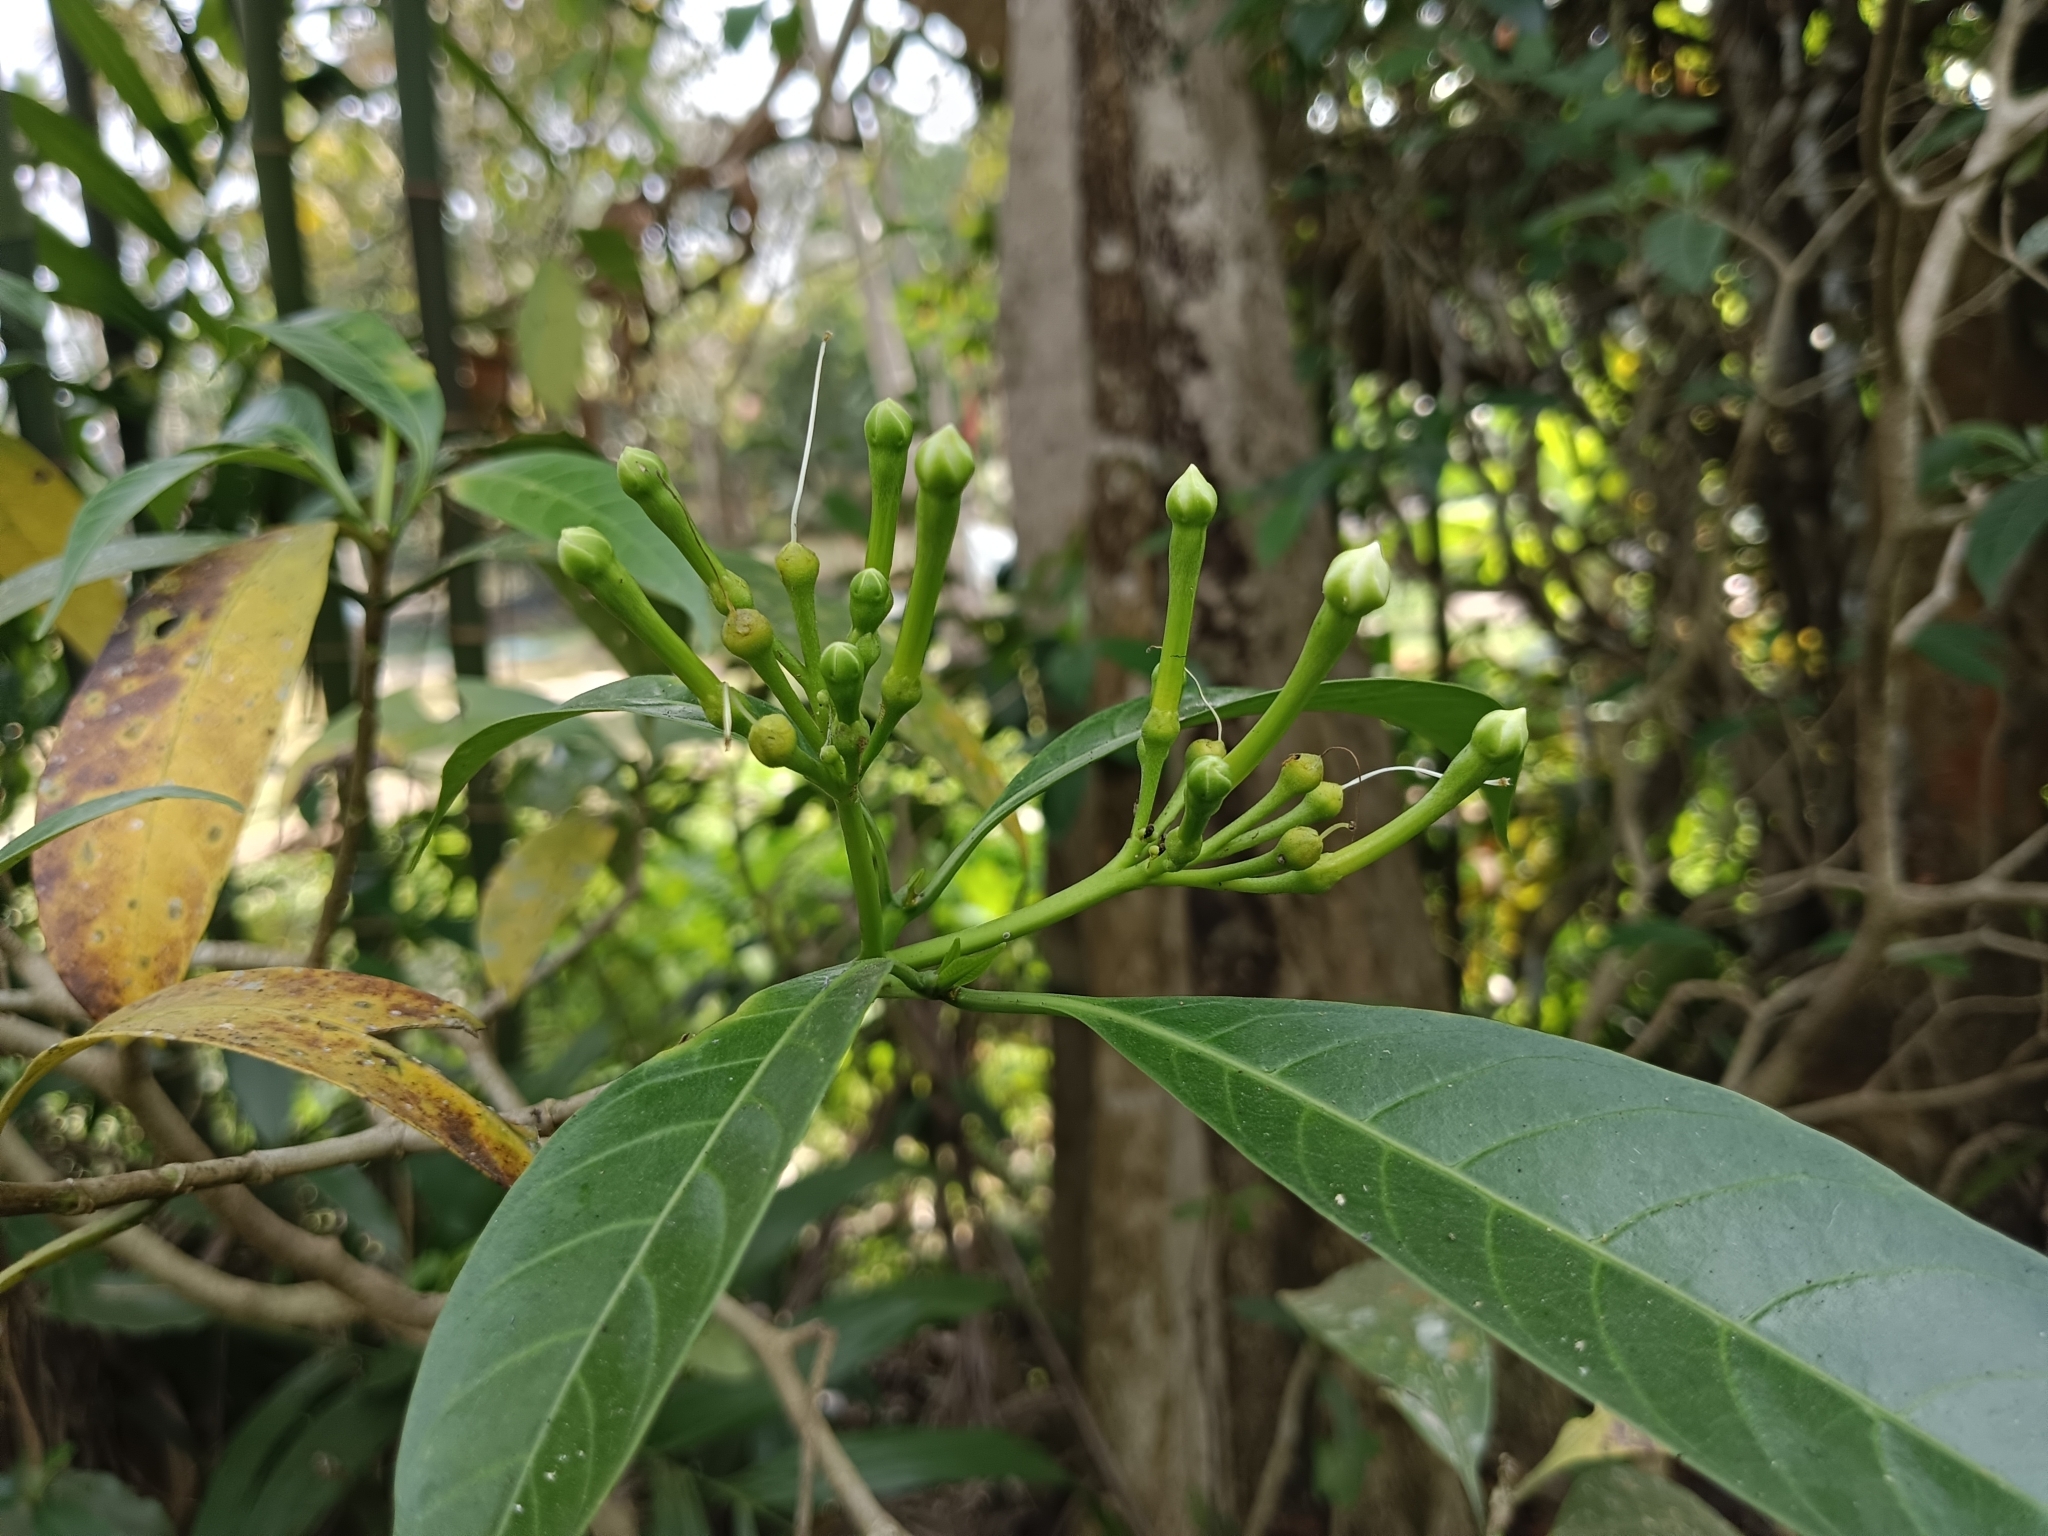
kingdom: Plantae
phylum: Tracheophyta
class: Magnoliopsida
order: Gentianales
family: Apocynaceae
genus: Tabernaemontana
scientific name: Tabernaemontana alternifolia
